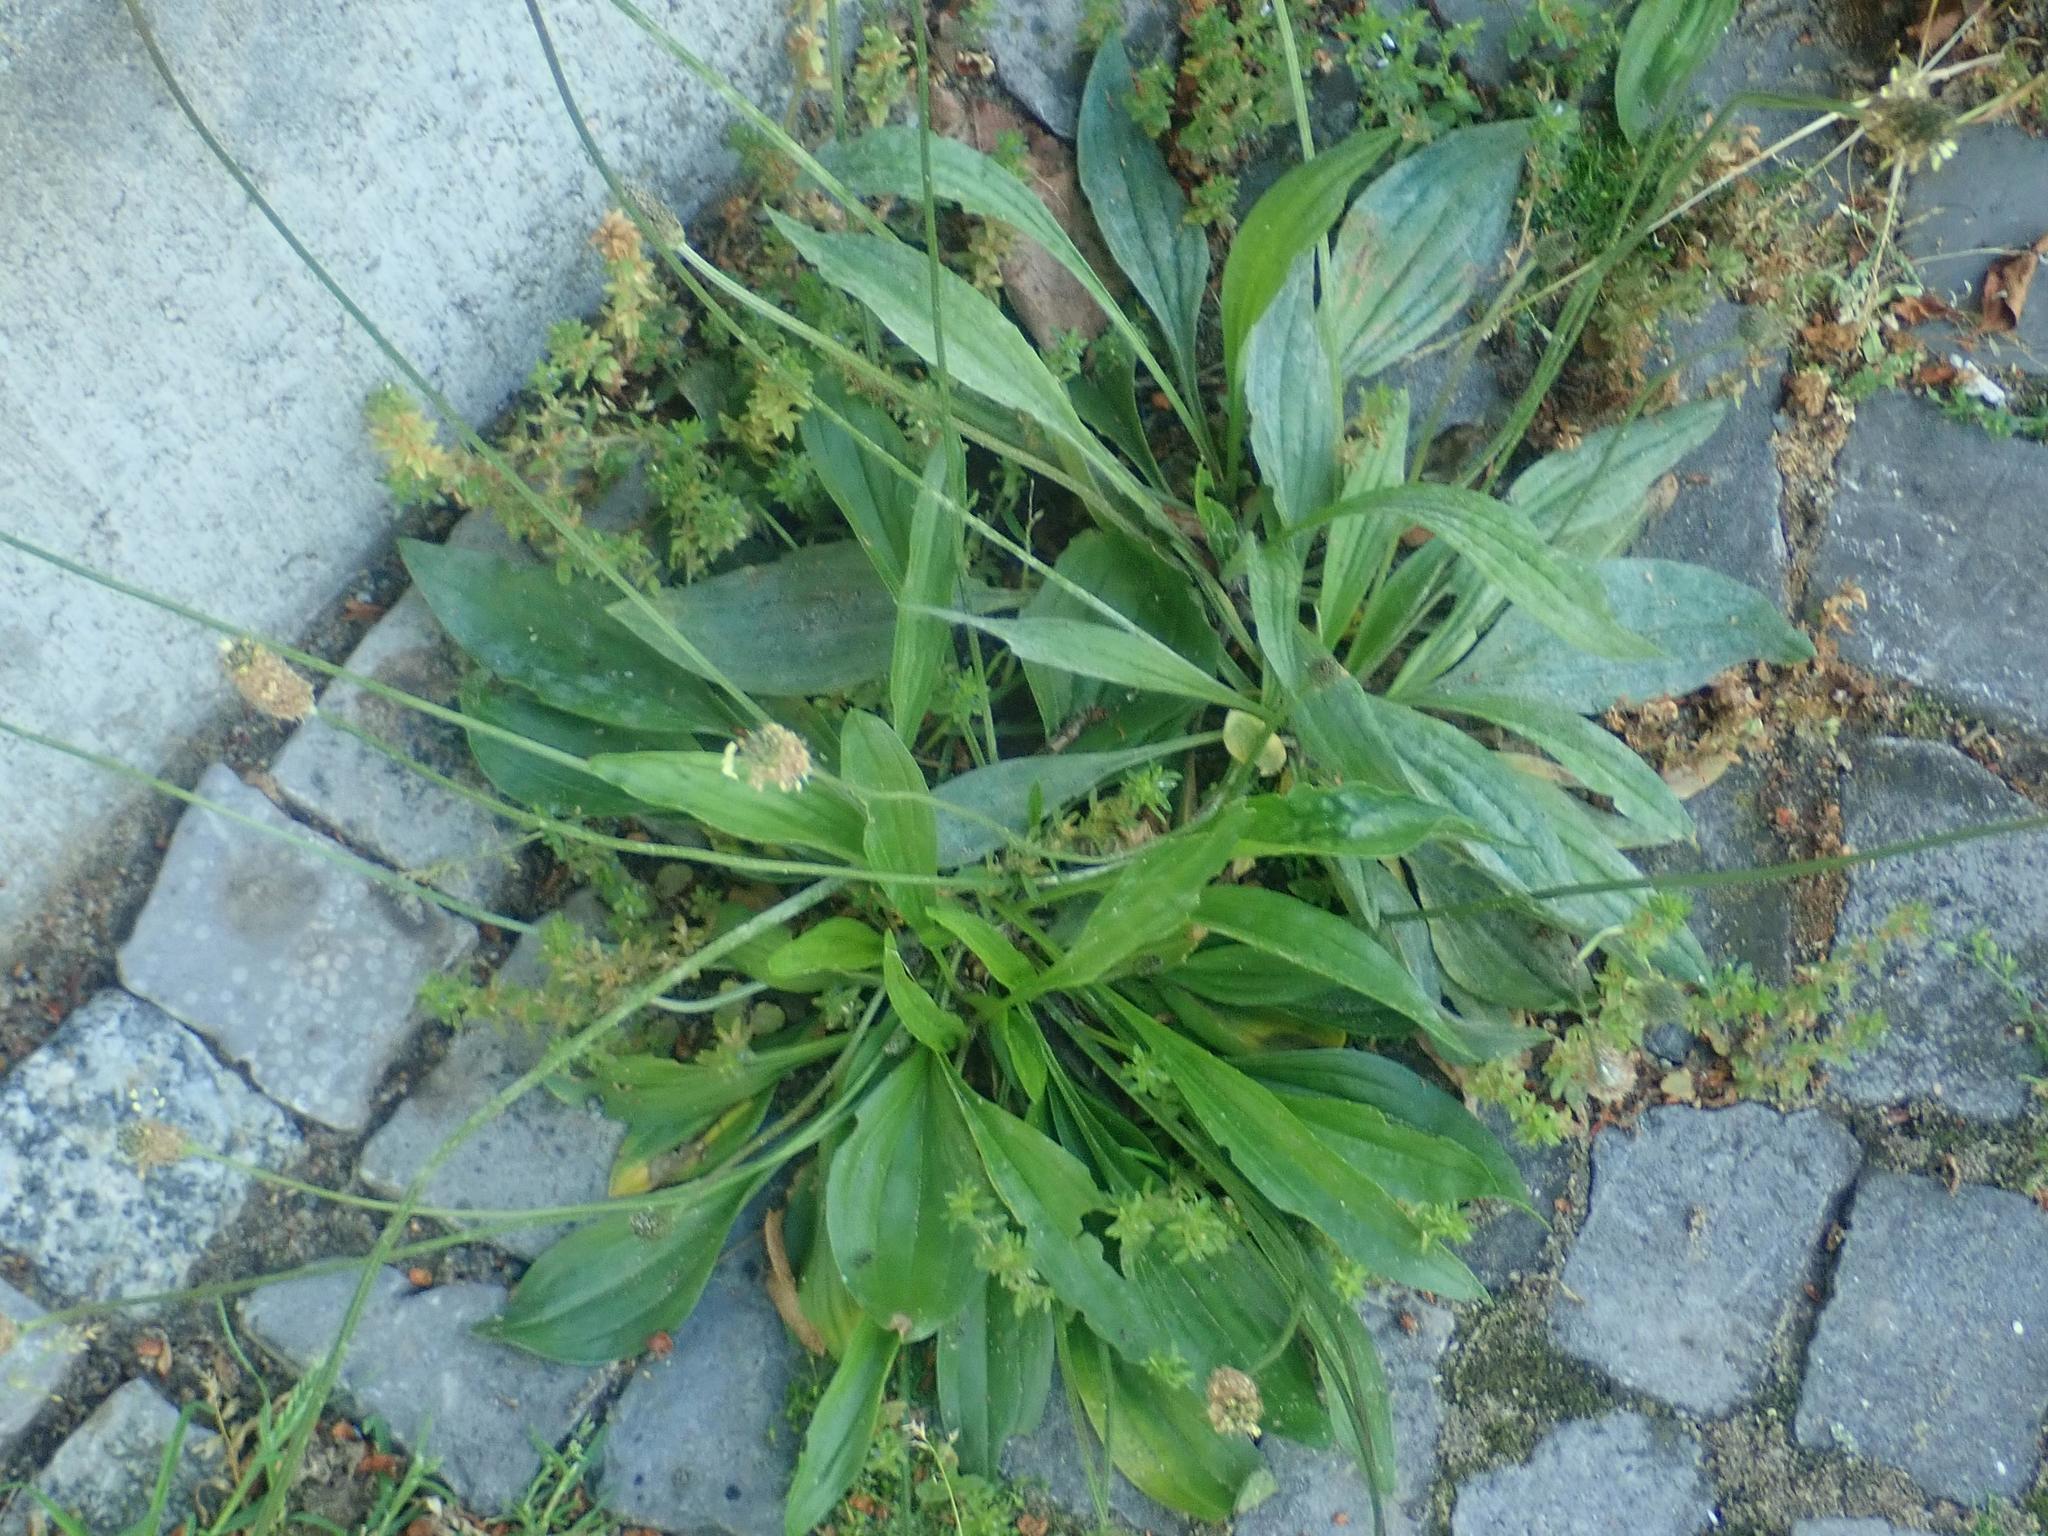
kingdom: Plantae
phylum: Tracheophyta
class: Magnoliopsida
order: Lamiales
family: Plantaginaceae
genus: Plantago
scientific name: Plantago lanceolata
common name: Ribwort plantain
